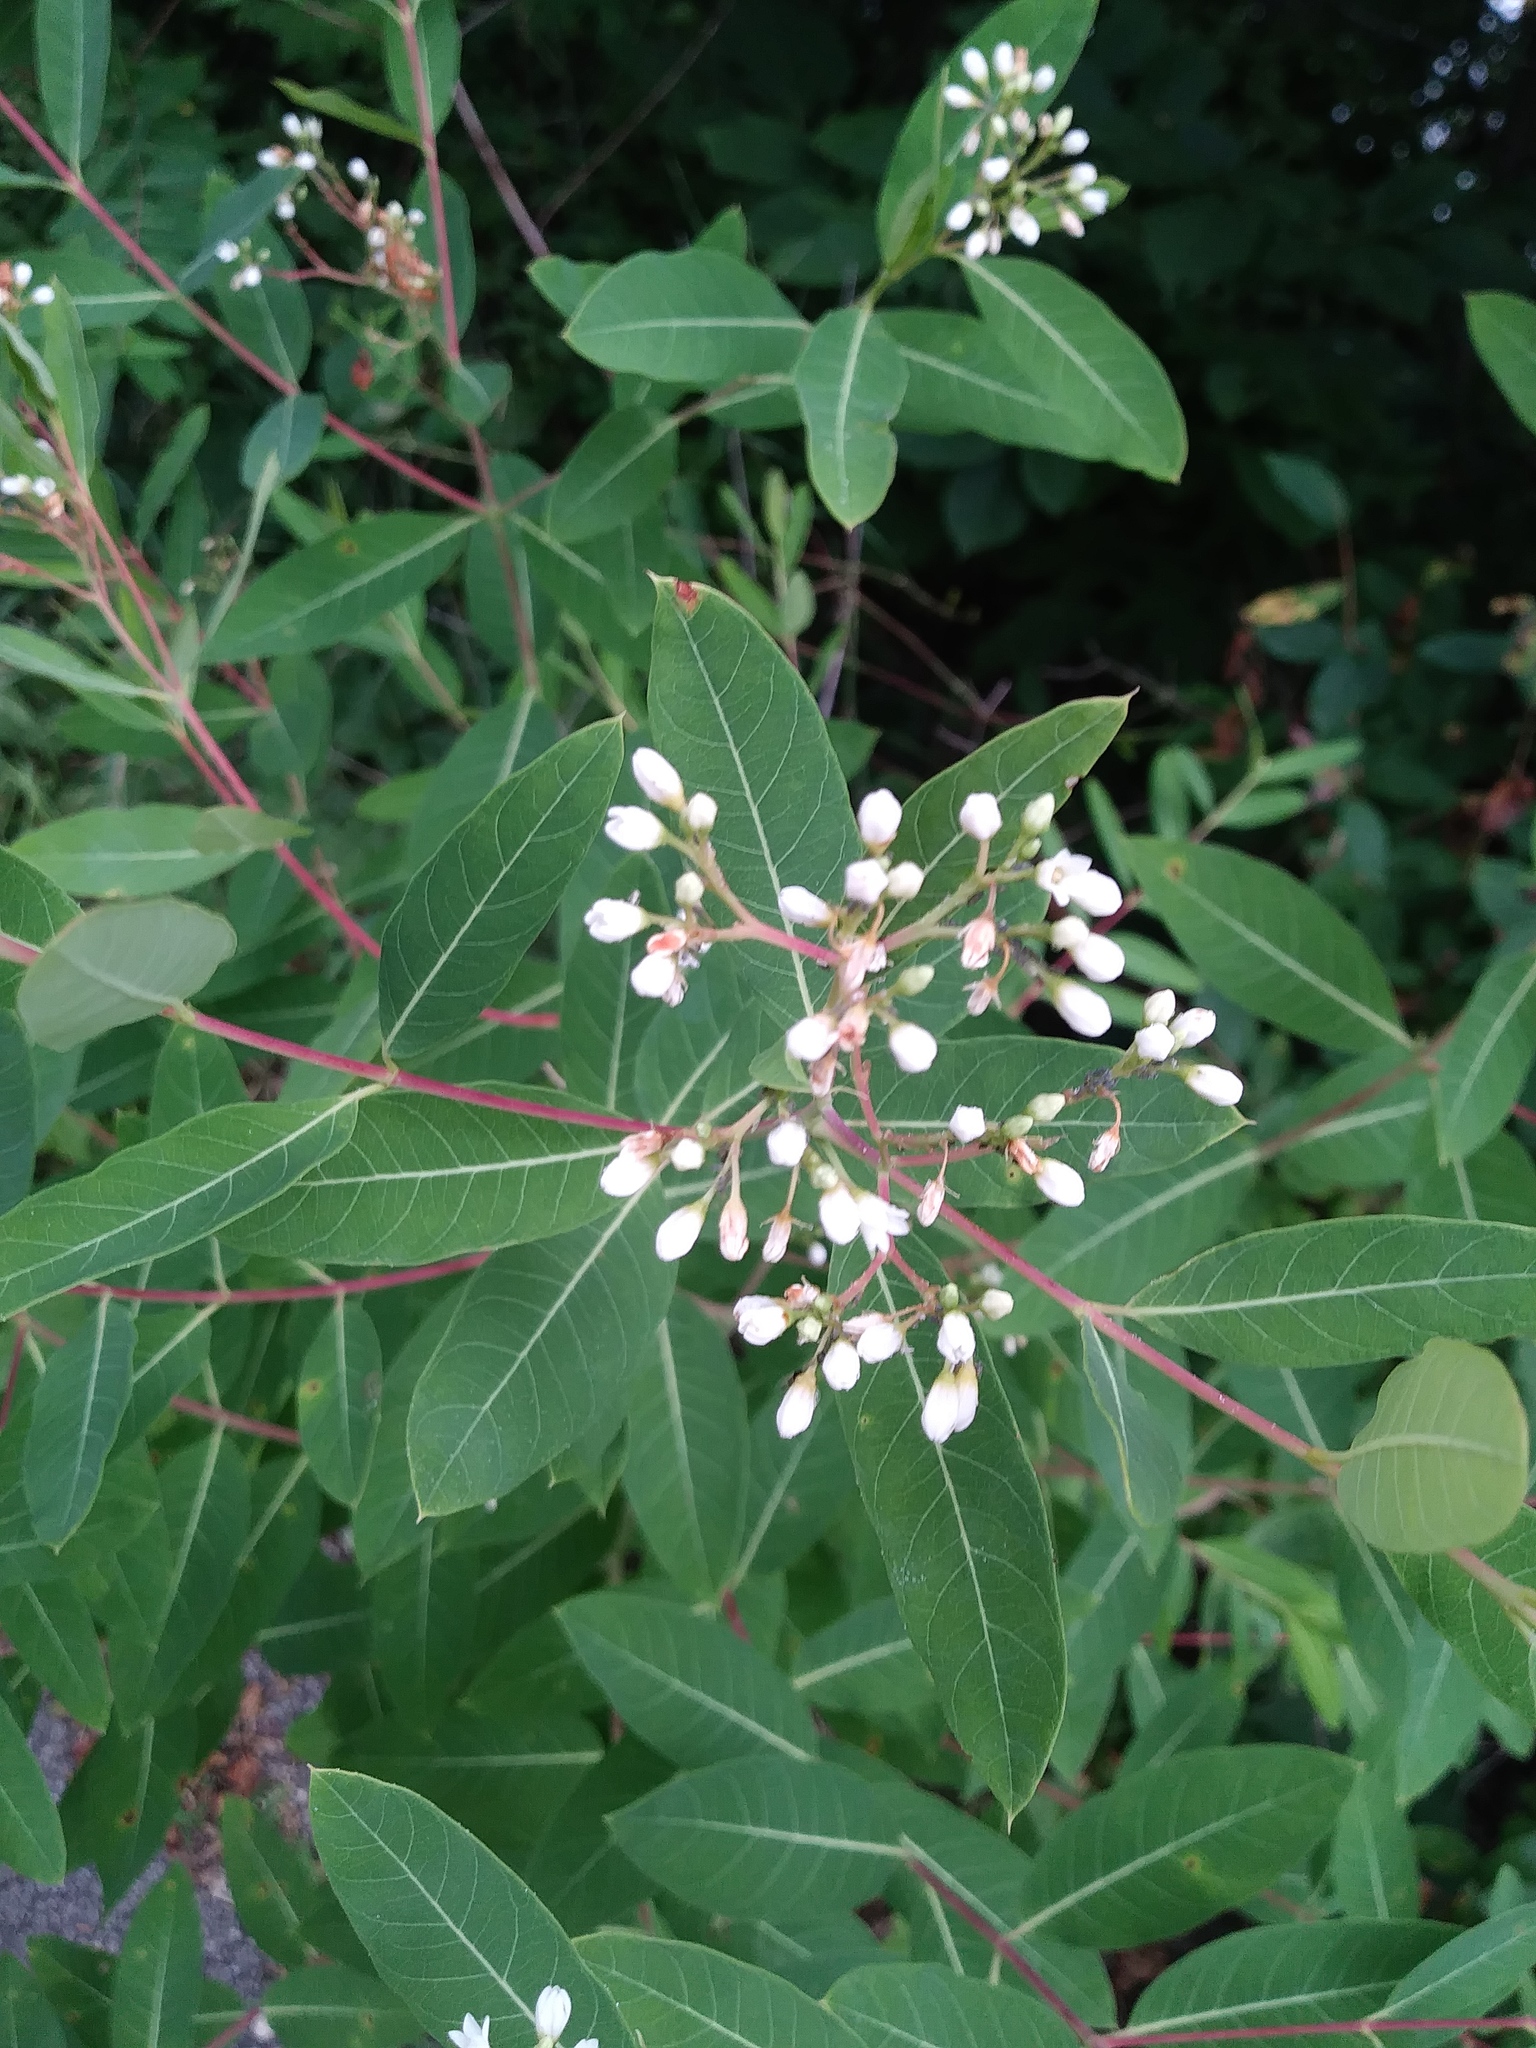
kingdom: Plantae
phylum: Tracheophyta
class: Magnoliopsida
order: Gentianales
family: Apocynaceae
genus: Apocynum
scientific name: Apocynum cannabinum
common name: Hemp dogbane
